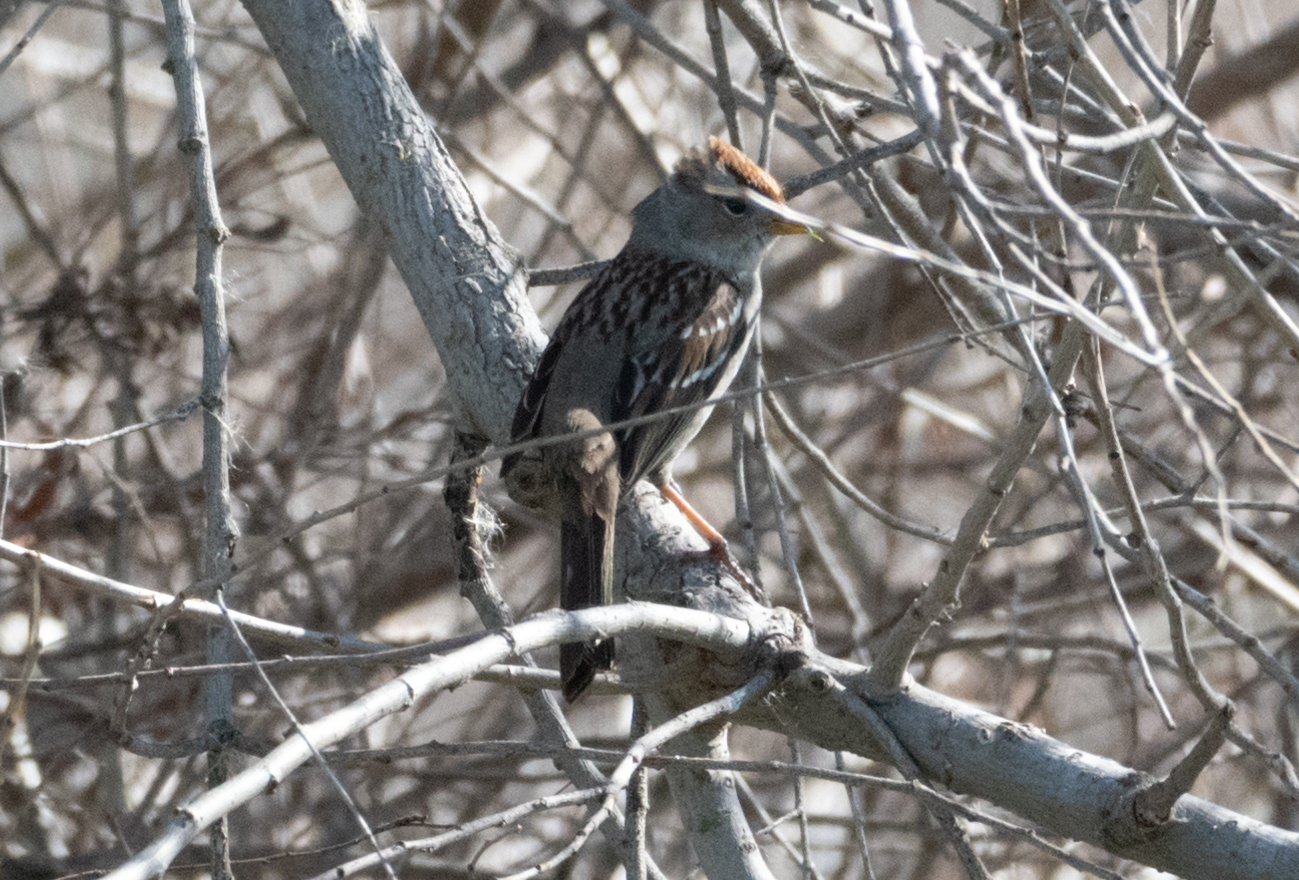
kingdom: Animalia
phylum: Chordata
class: Aves
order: Passeriformes
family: Passerellidae
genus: Zonotrichia
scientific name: Zonotrichia leucophrys
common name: White-crowned sparrow
